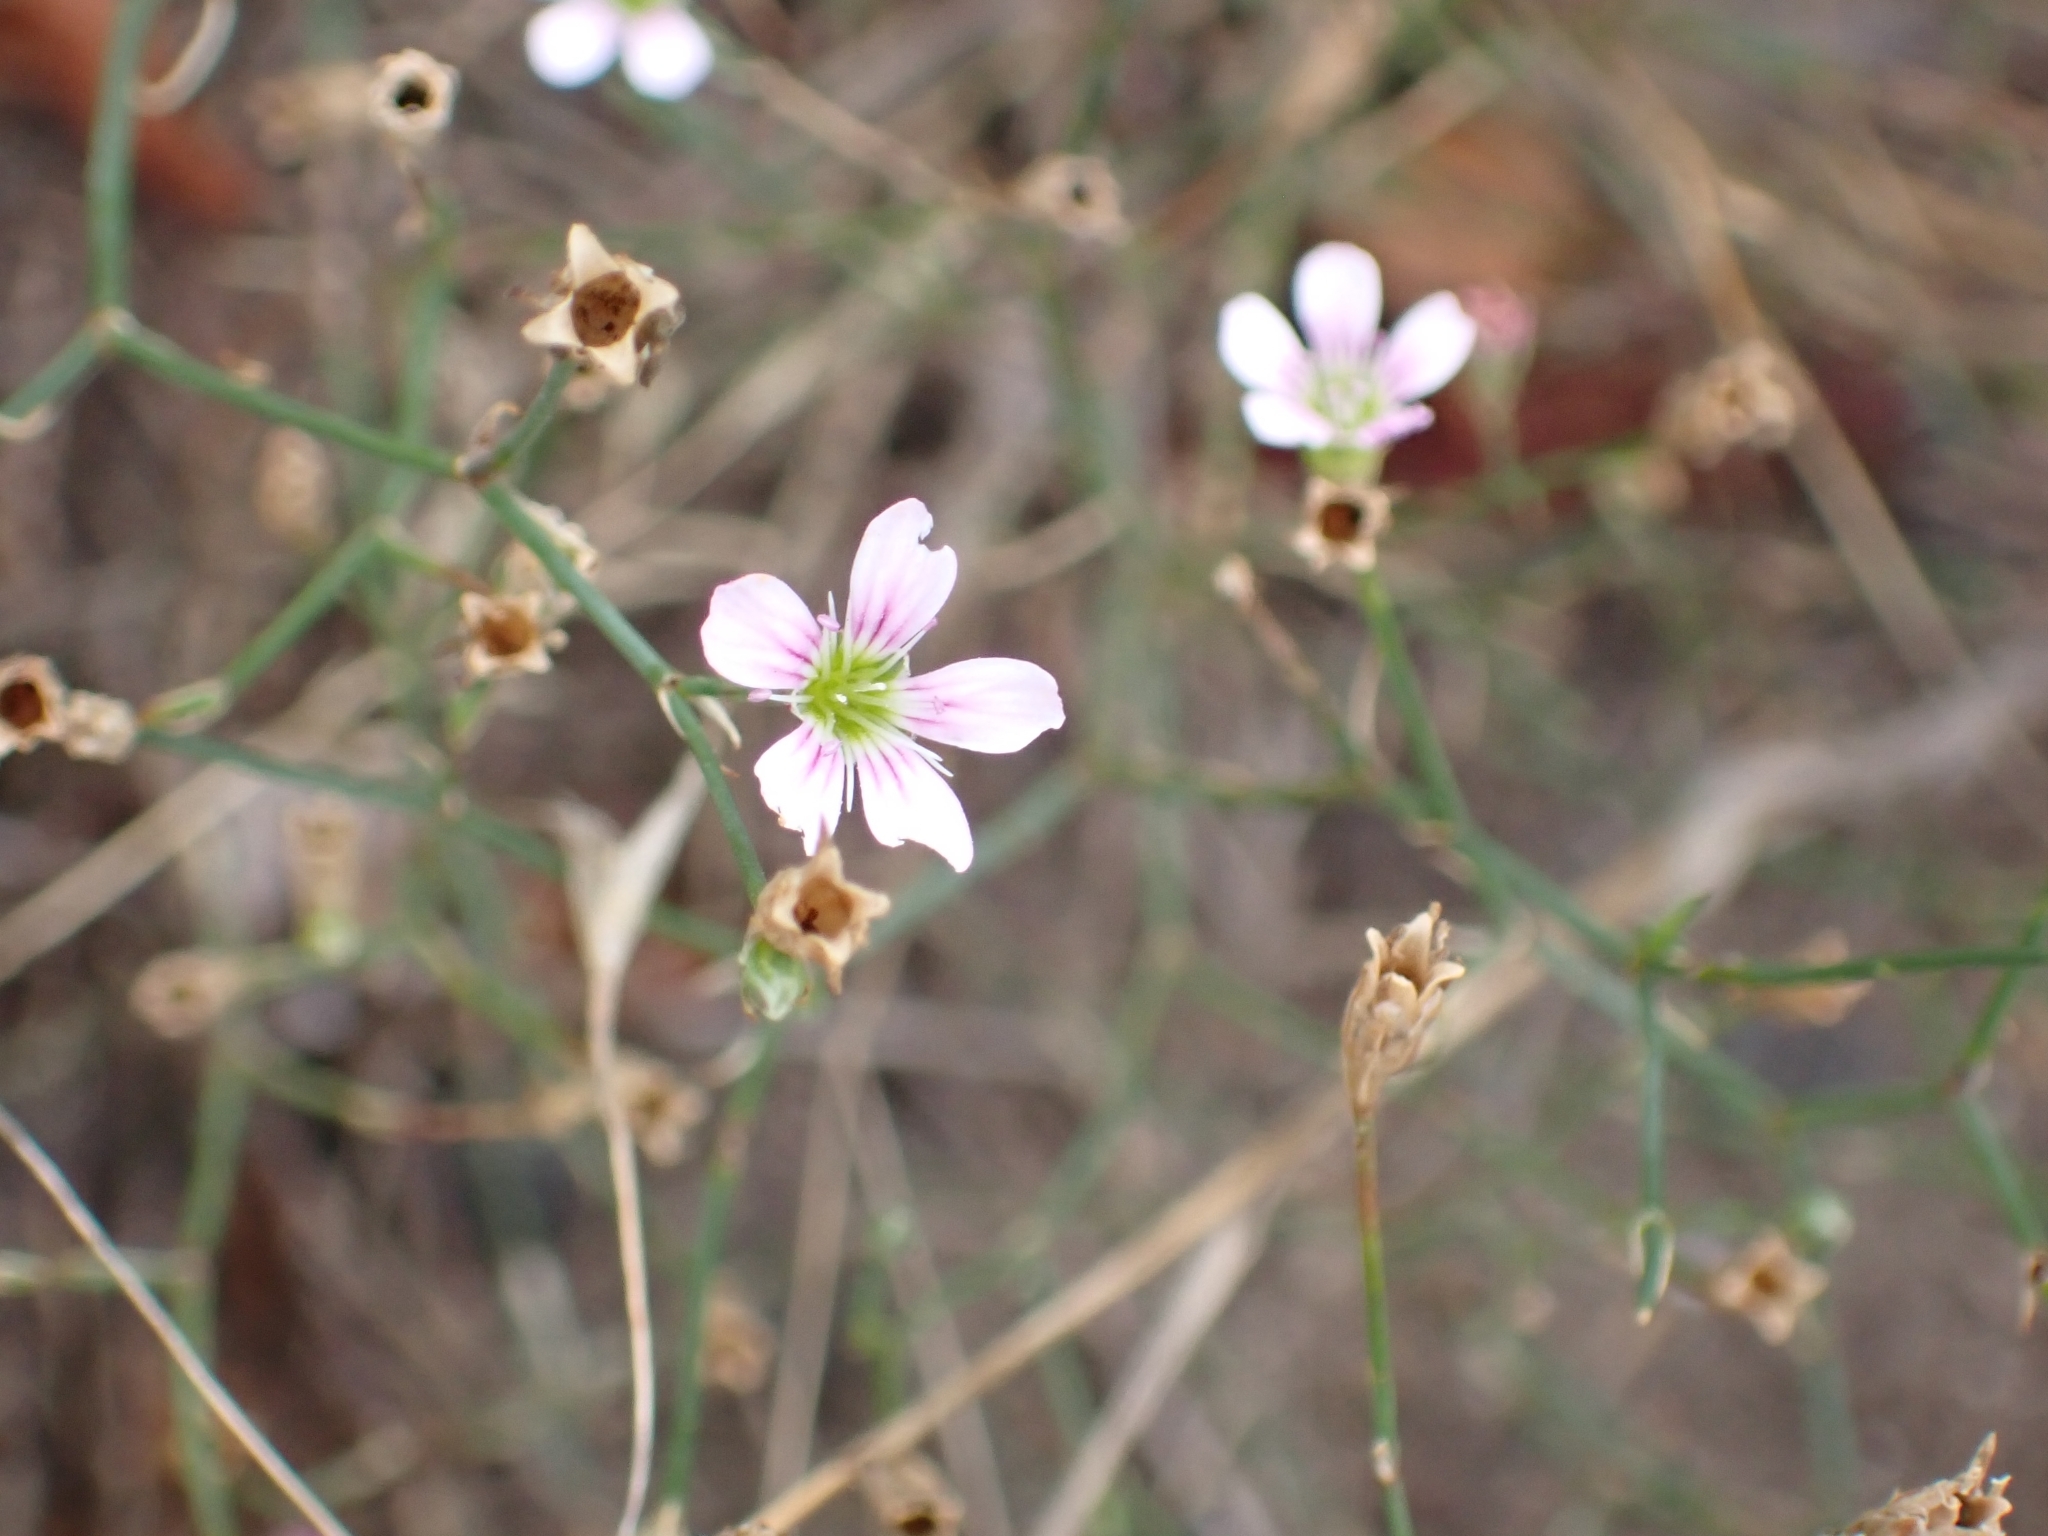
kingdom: Plantae
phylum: Tracheophyta
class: Magnoliopsida
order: Caryophyllales
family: Caryophyllaceae
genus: Petrorhagia
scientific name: Petrorhagia saxifraga
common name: Tunicflower
